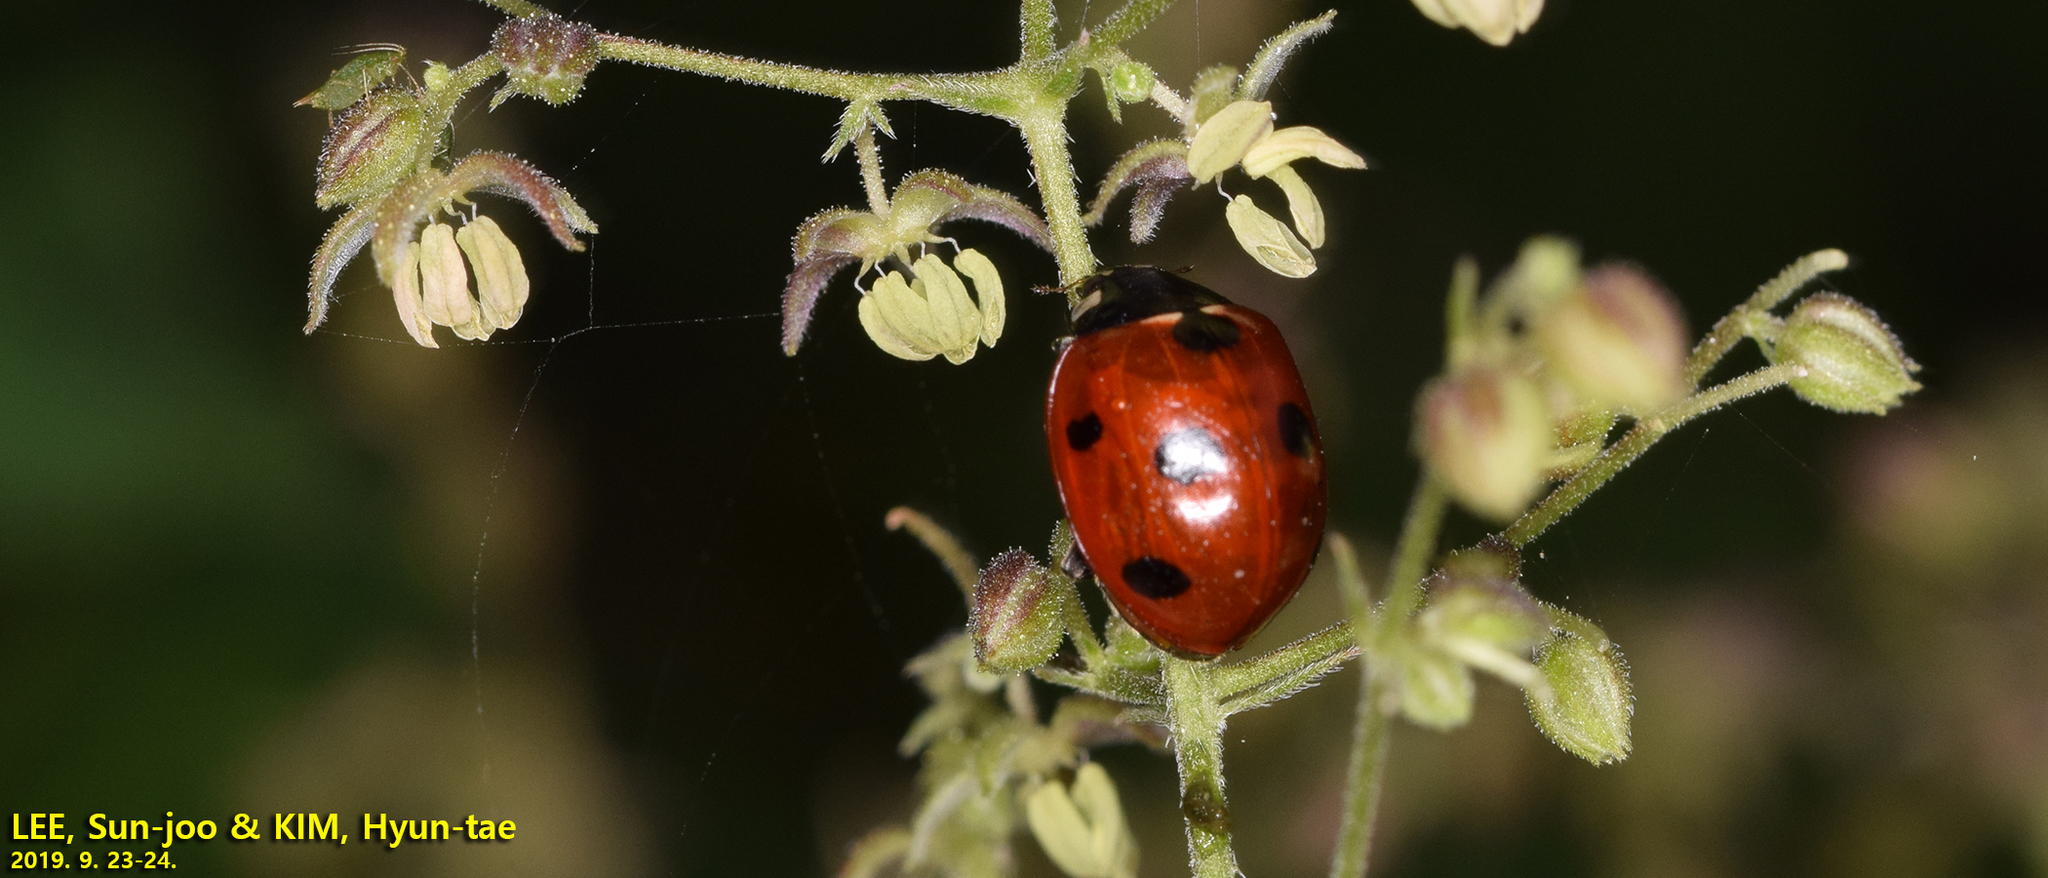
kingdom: Animalia
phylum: Arthropoda
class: Insecta
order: Coleoptera
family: Coccinellidae
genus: Coccinella
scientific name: Coccinella septempunctata
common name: Sevenspotted lady beetle
